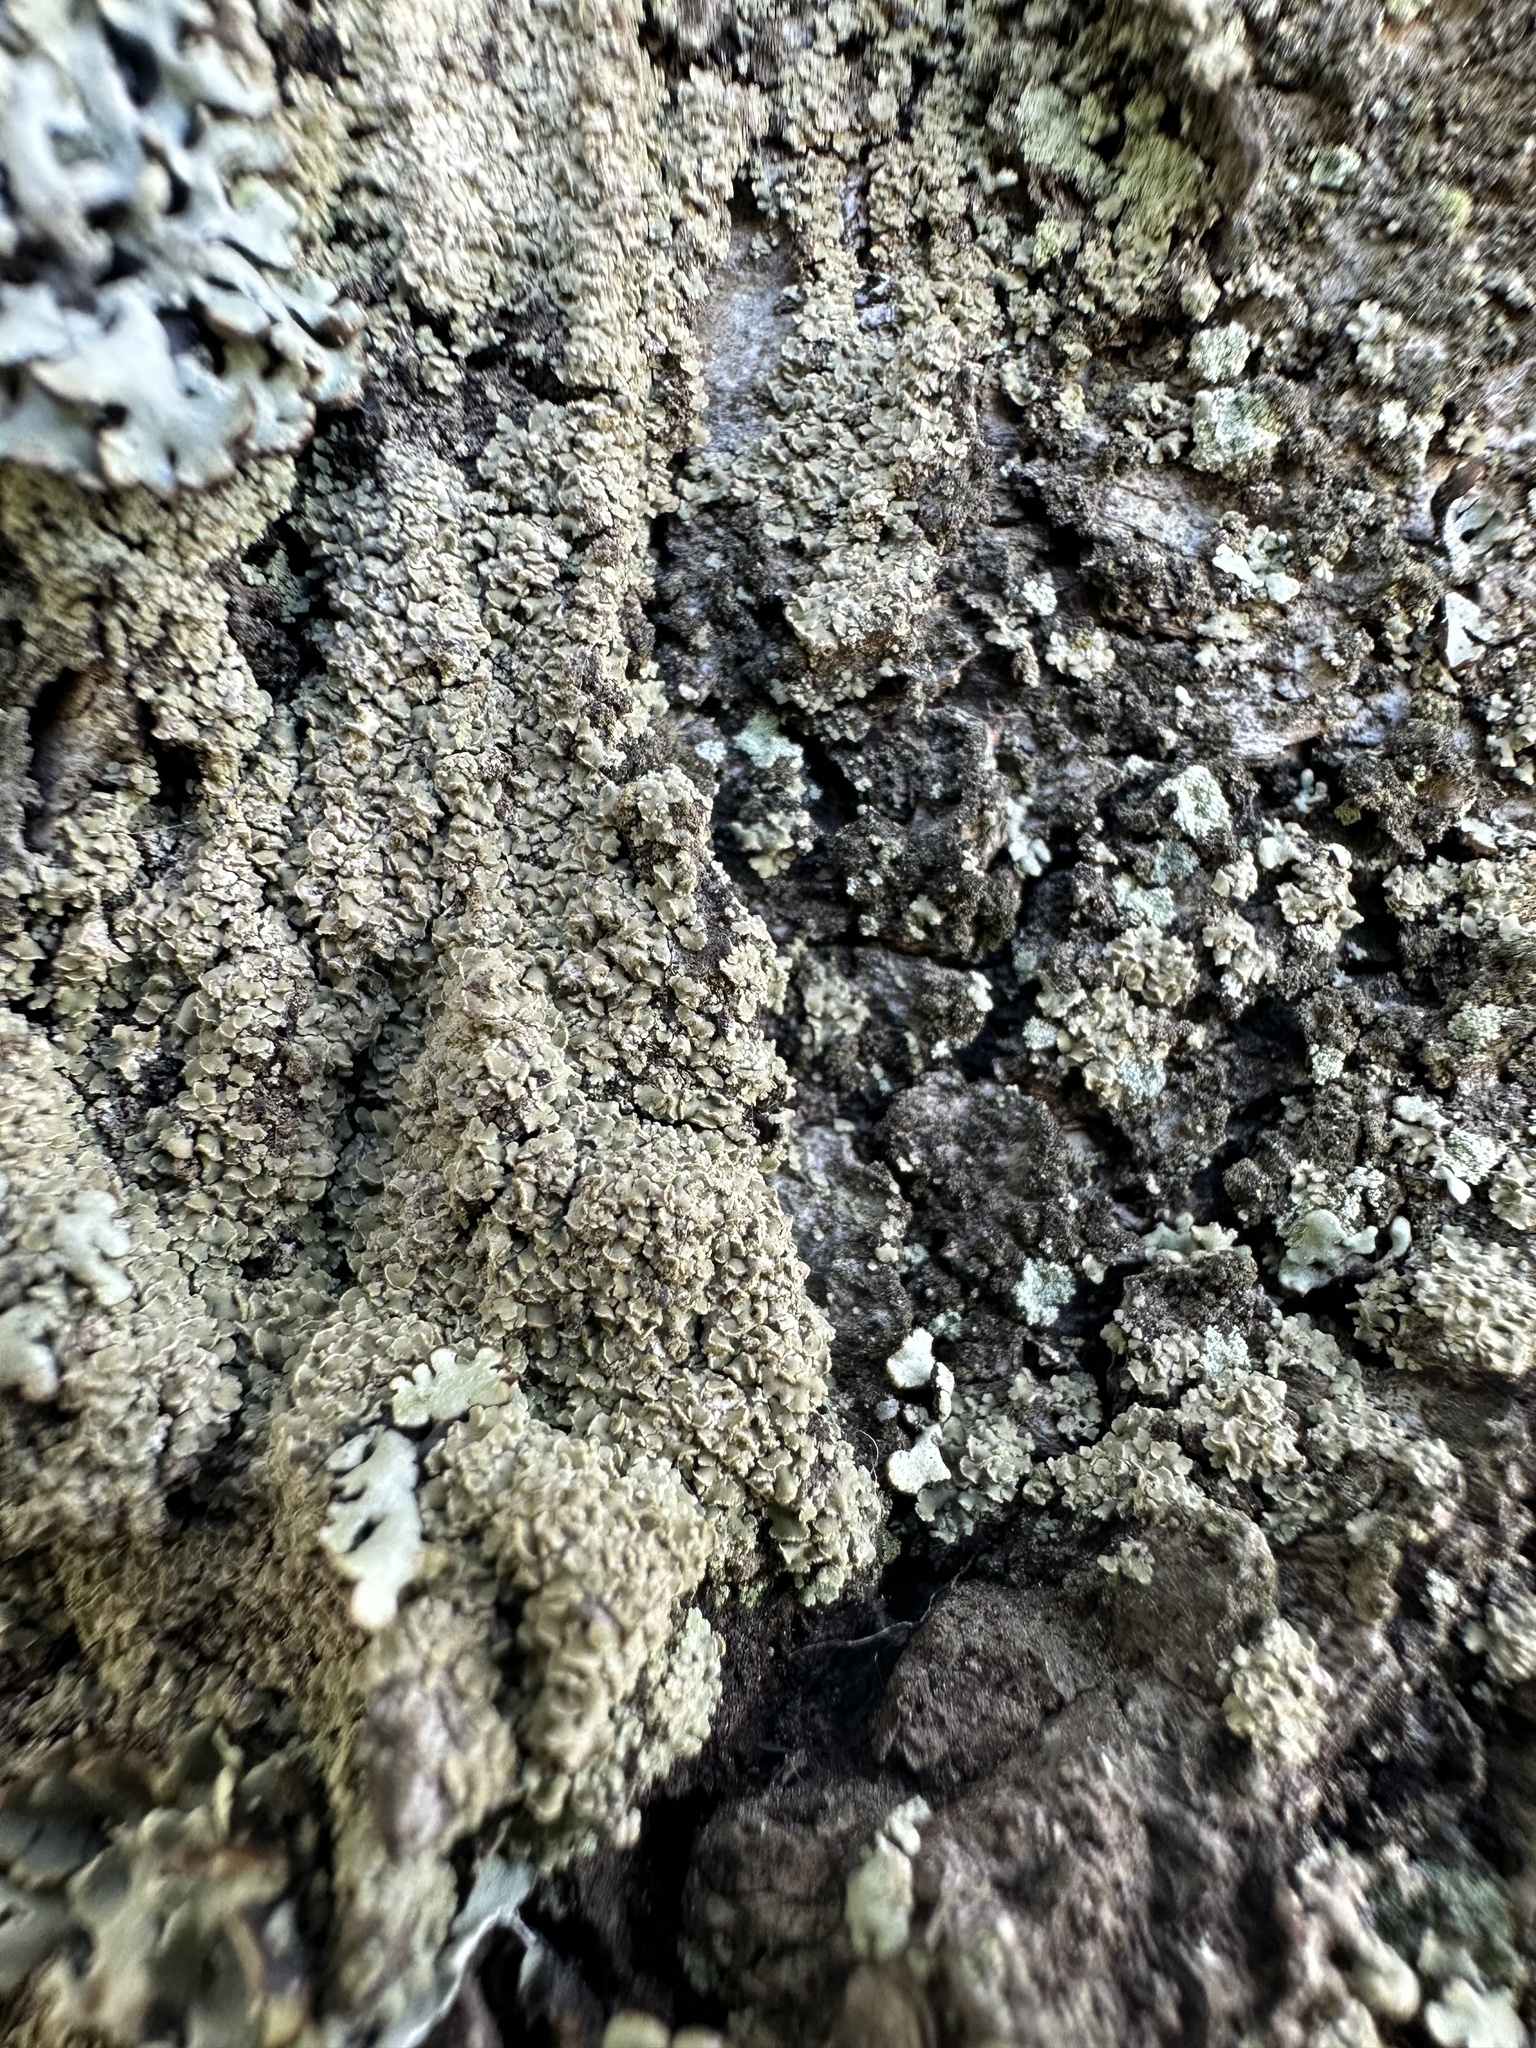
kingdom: Fungi
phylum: Ascomycota
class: Lecanoromycetes
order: Umbilicariales
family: Ophioparmaceae
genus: Hypocenomyce
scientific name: Hypocenomyce scalaris
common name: Common clam lichen
